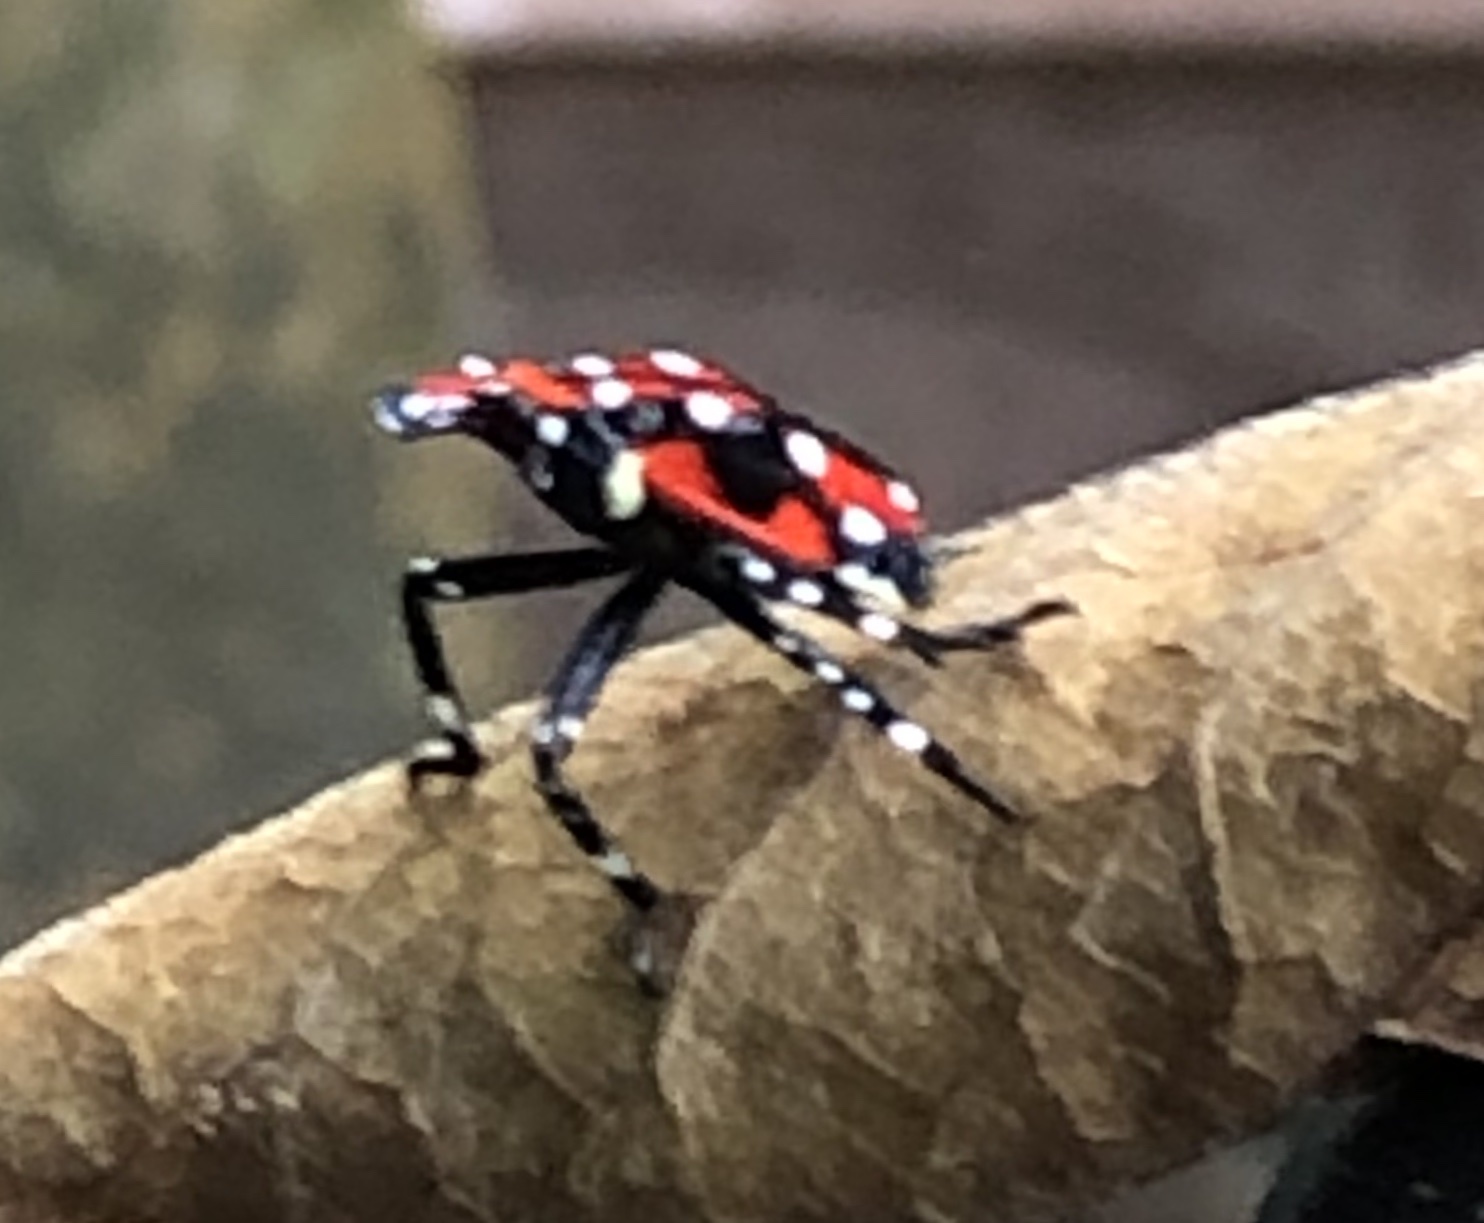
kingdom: Animalia
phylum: Arthropoda
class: Insecta
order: Hemiptera
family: Fulgoridae
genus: Lycorma
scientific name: Lycorma delicatula
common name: Spotted lanternfly
